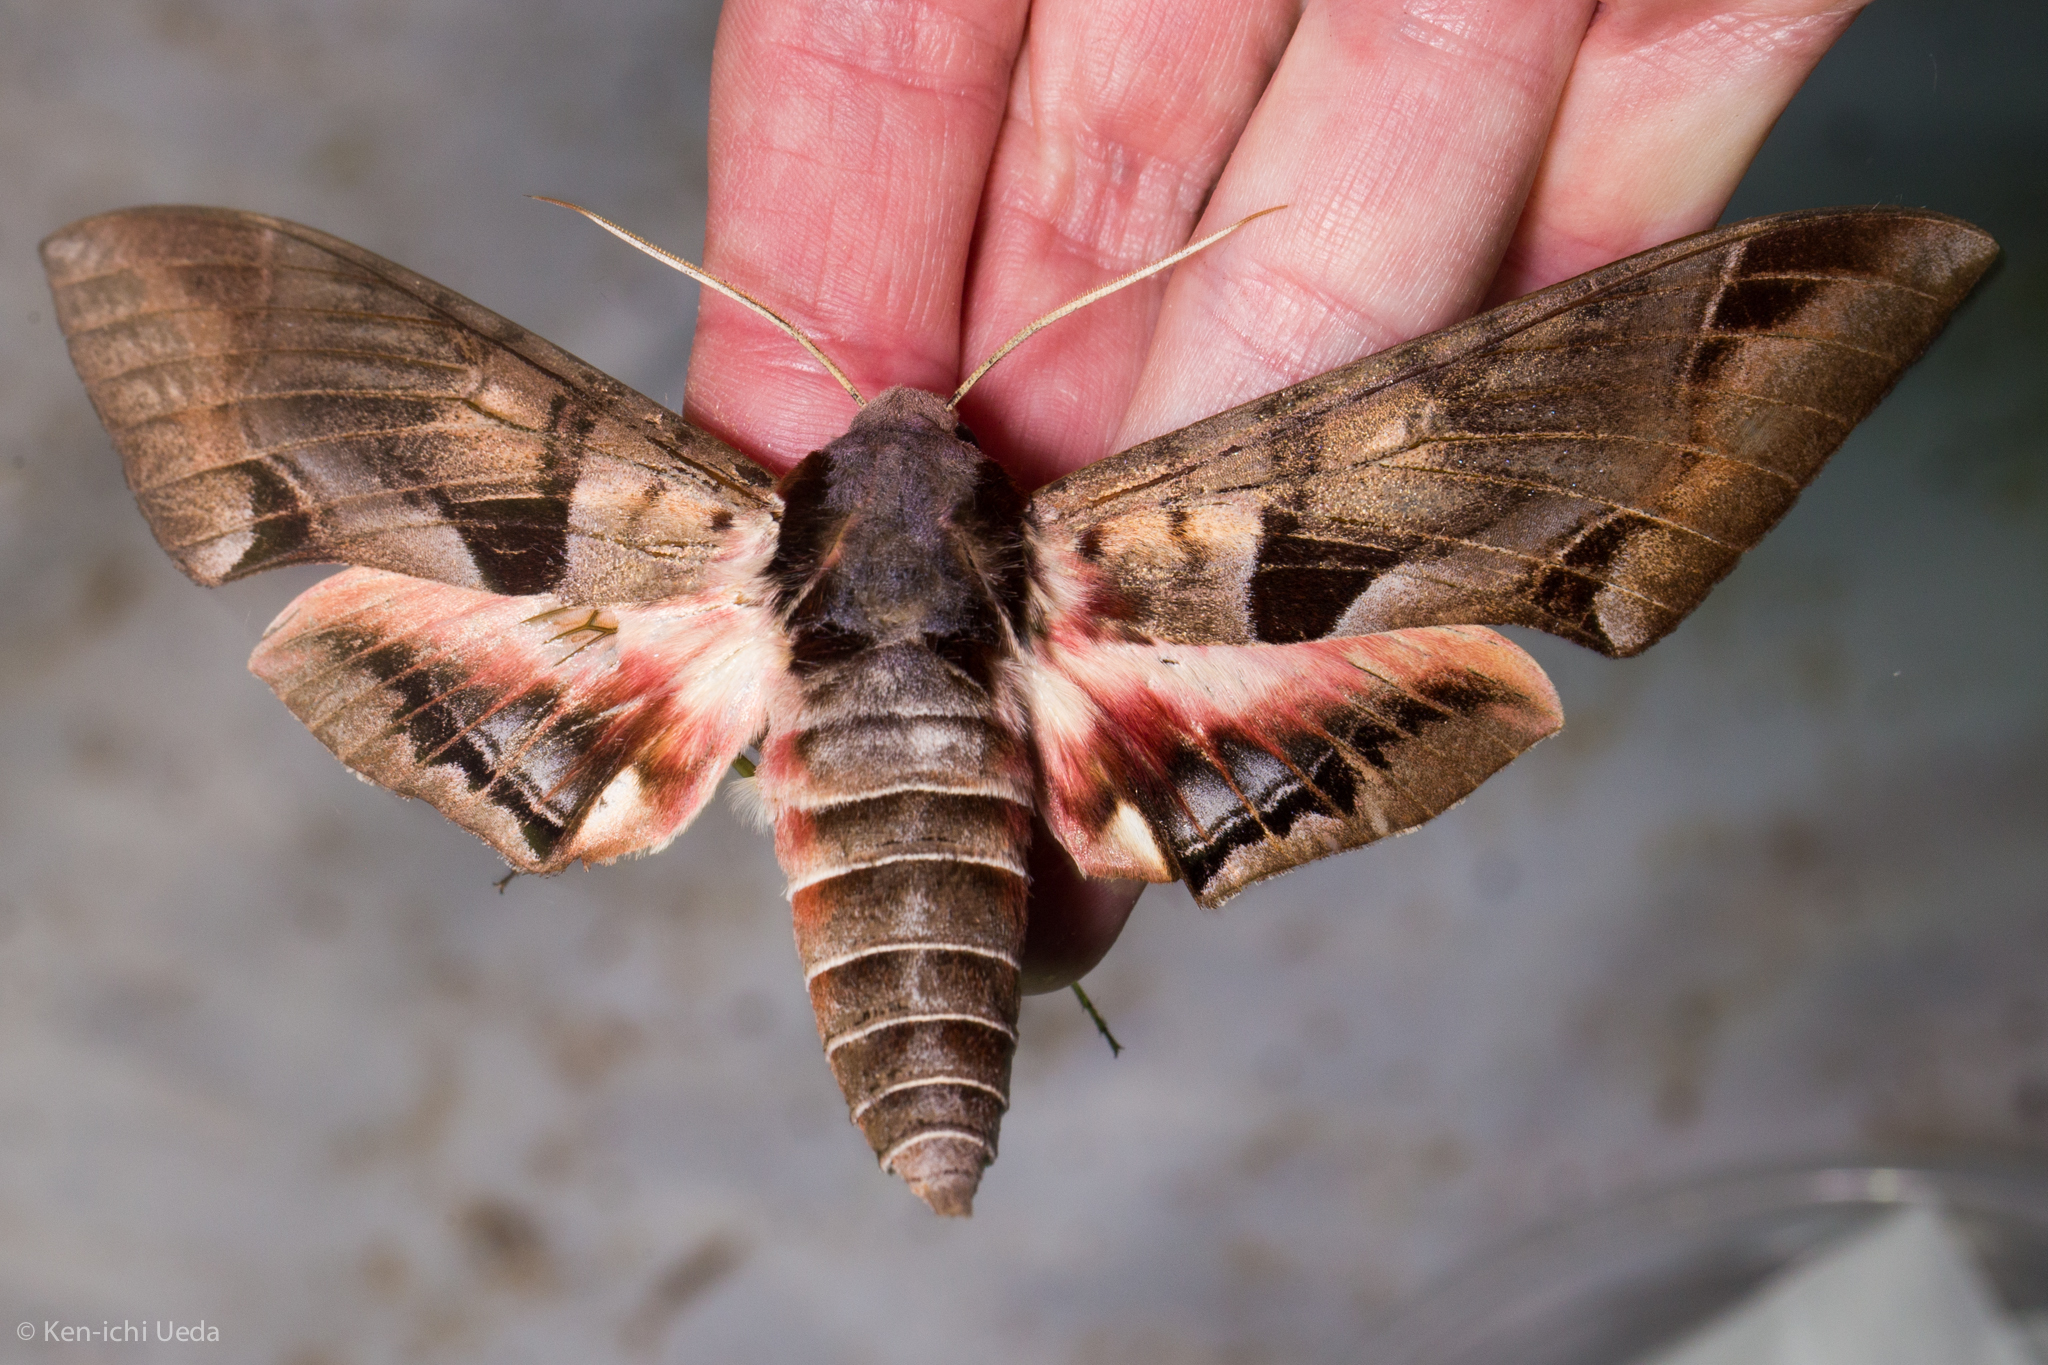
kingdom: Animalia
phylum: Arthropoda
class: Insecta
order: Lepidoptera
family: Sphingidae
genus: Eumorpha
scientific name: Eumorpha typhon
